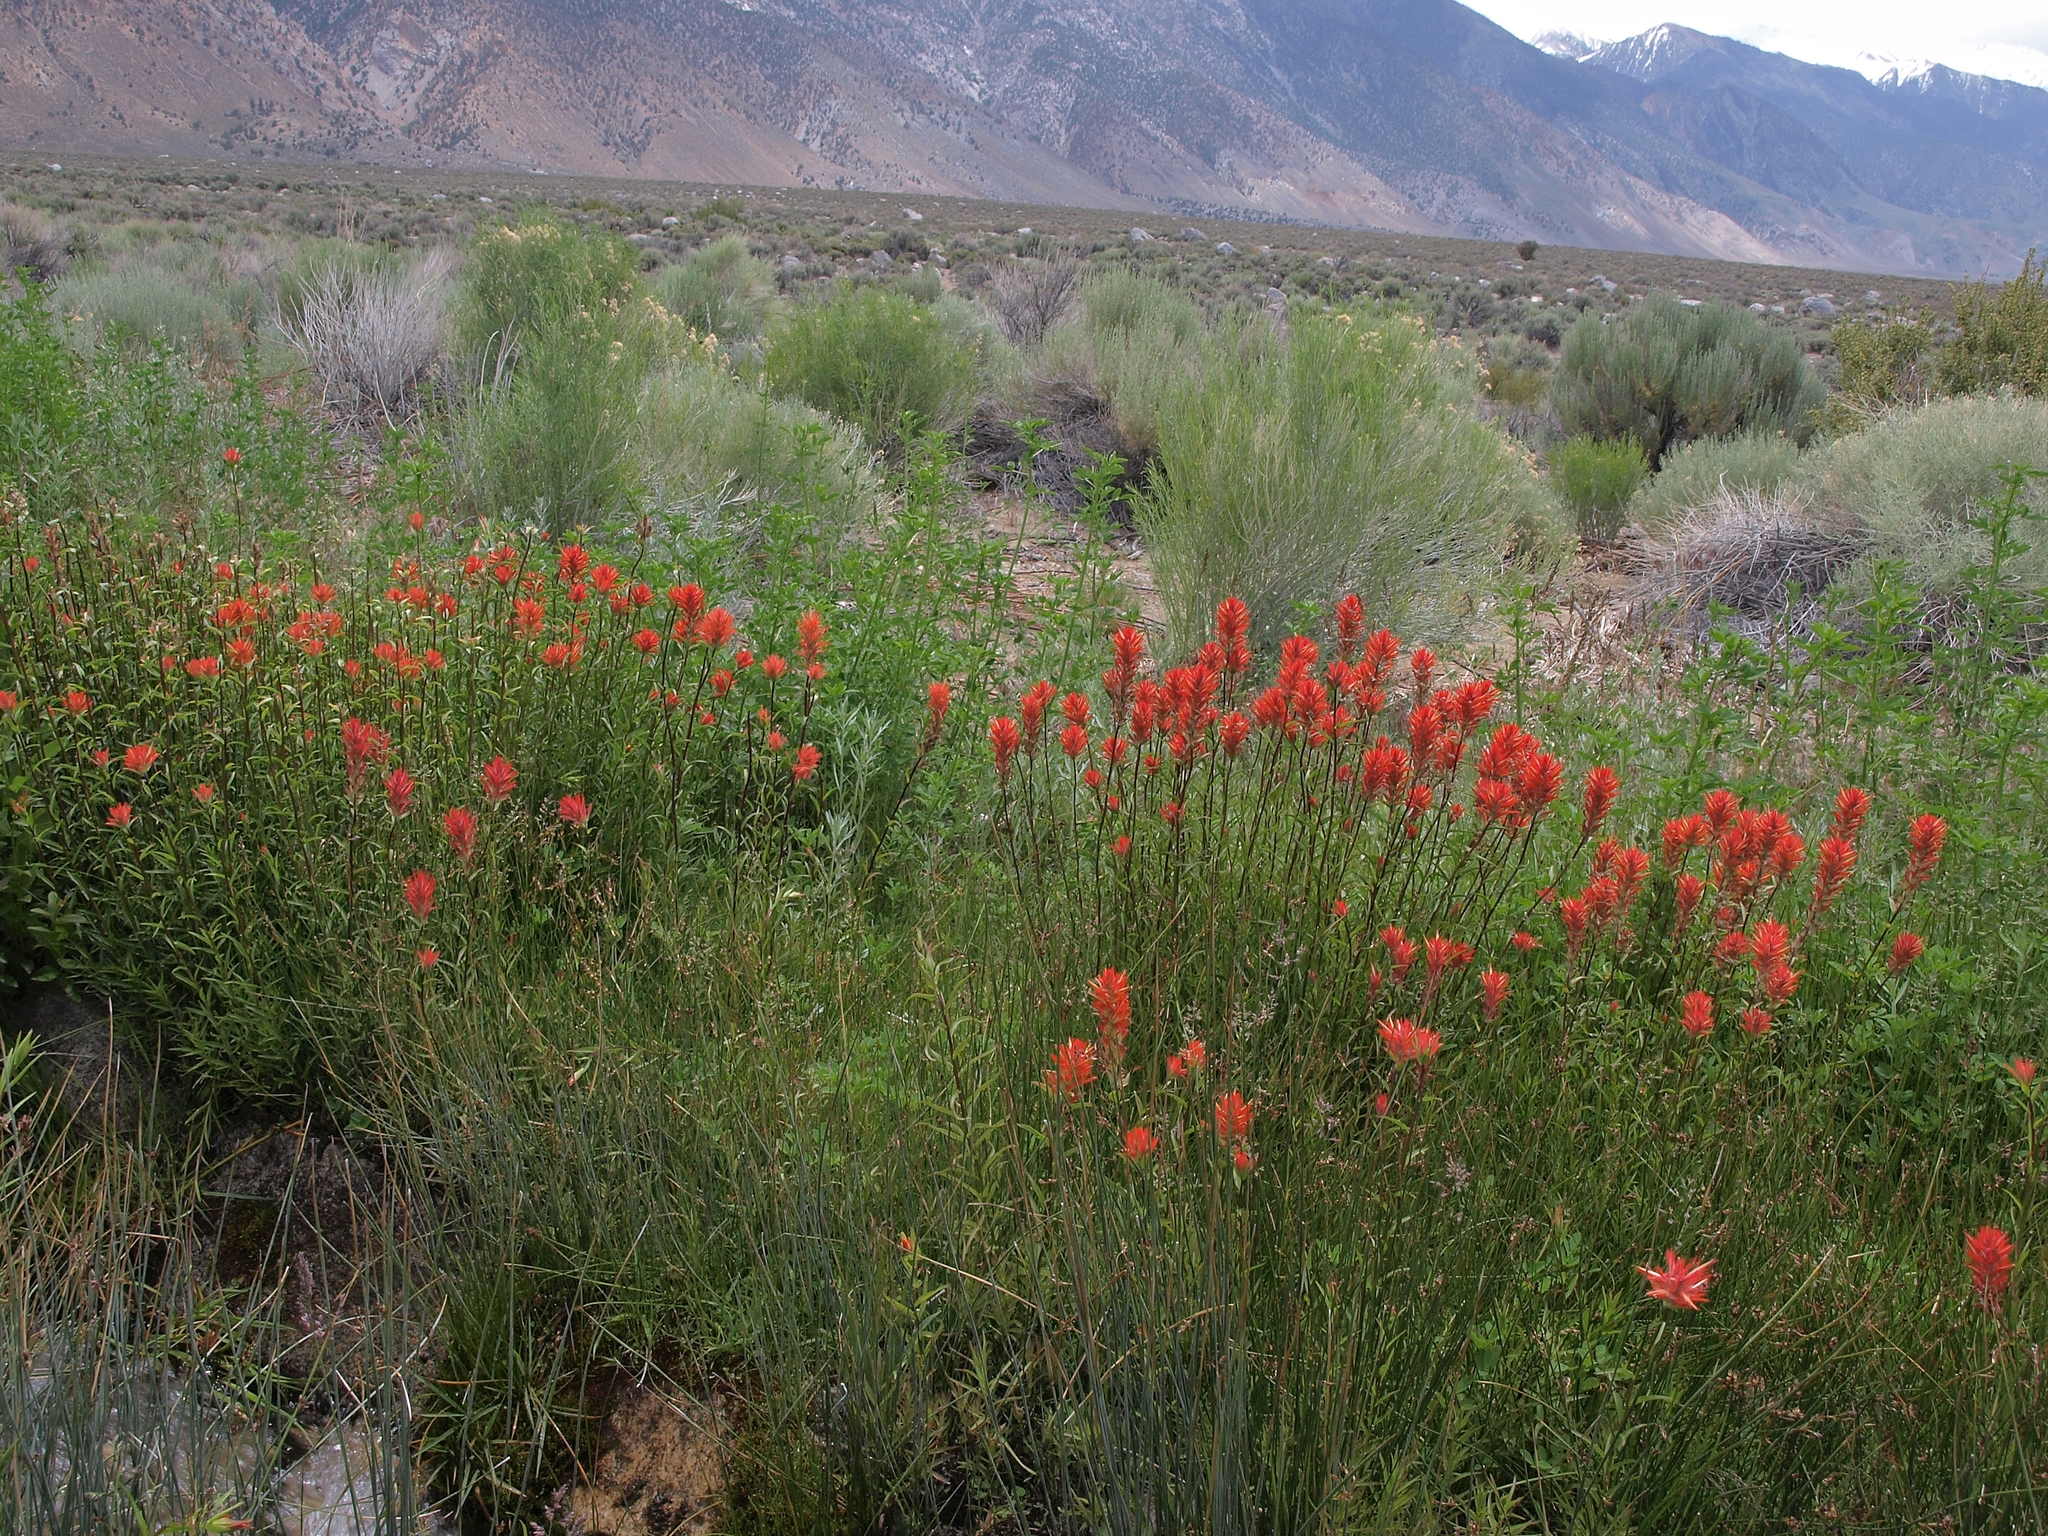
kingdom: Plantae
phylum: Tracheophyta
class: Magnoliopsida
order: Lamiales
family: Orobanchaceae
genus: Castilleja
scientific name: Castilleja miniata
